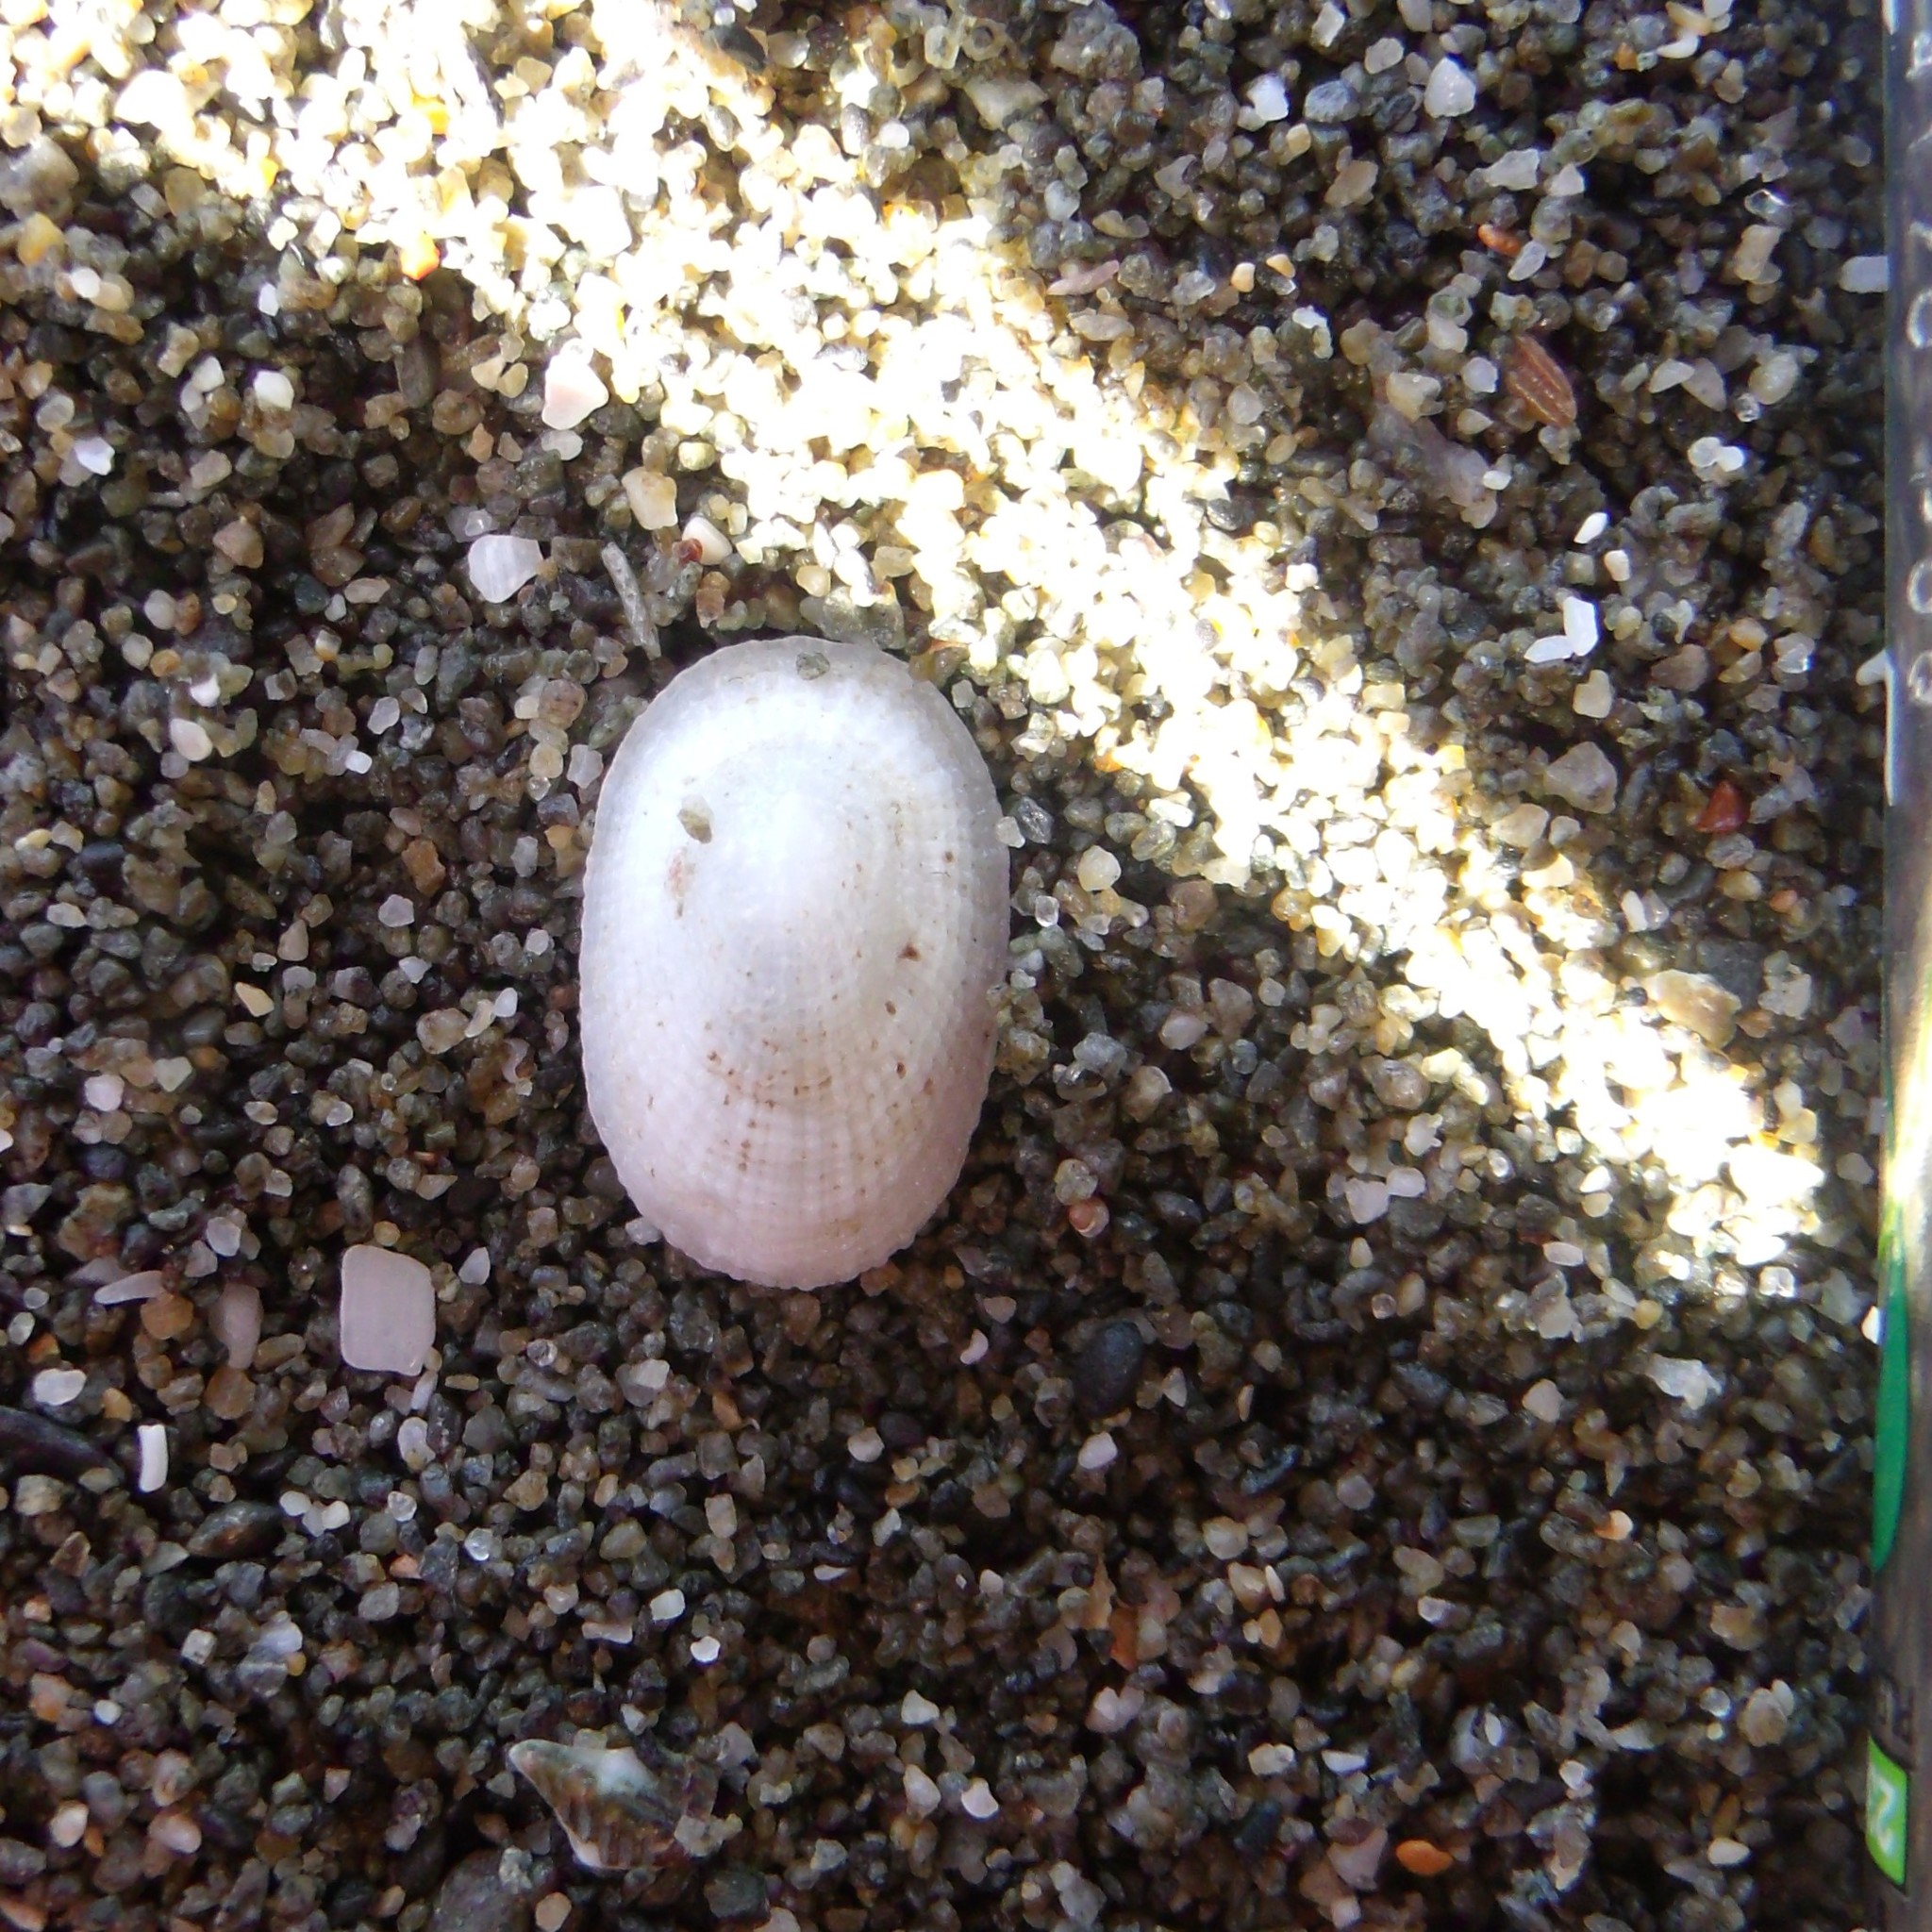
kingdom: Animalia
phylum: Mollusca
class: Gastropoda
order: Lepetellida
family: Fissurellidae
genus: Tugali
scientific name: Tugali elegans
